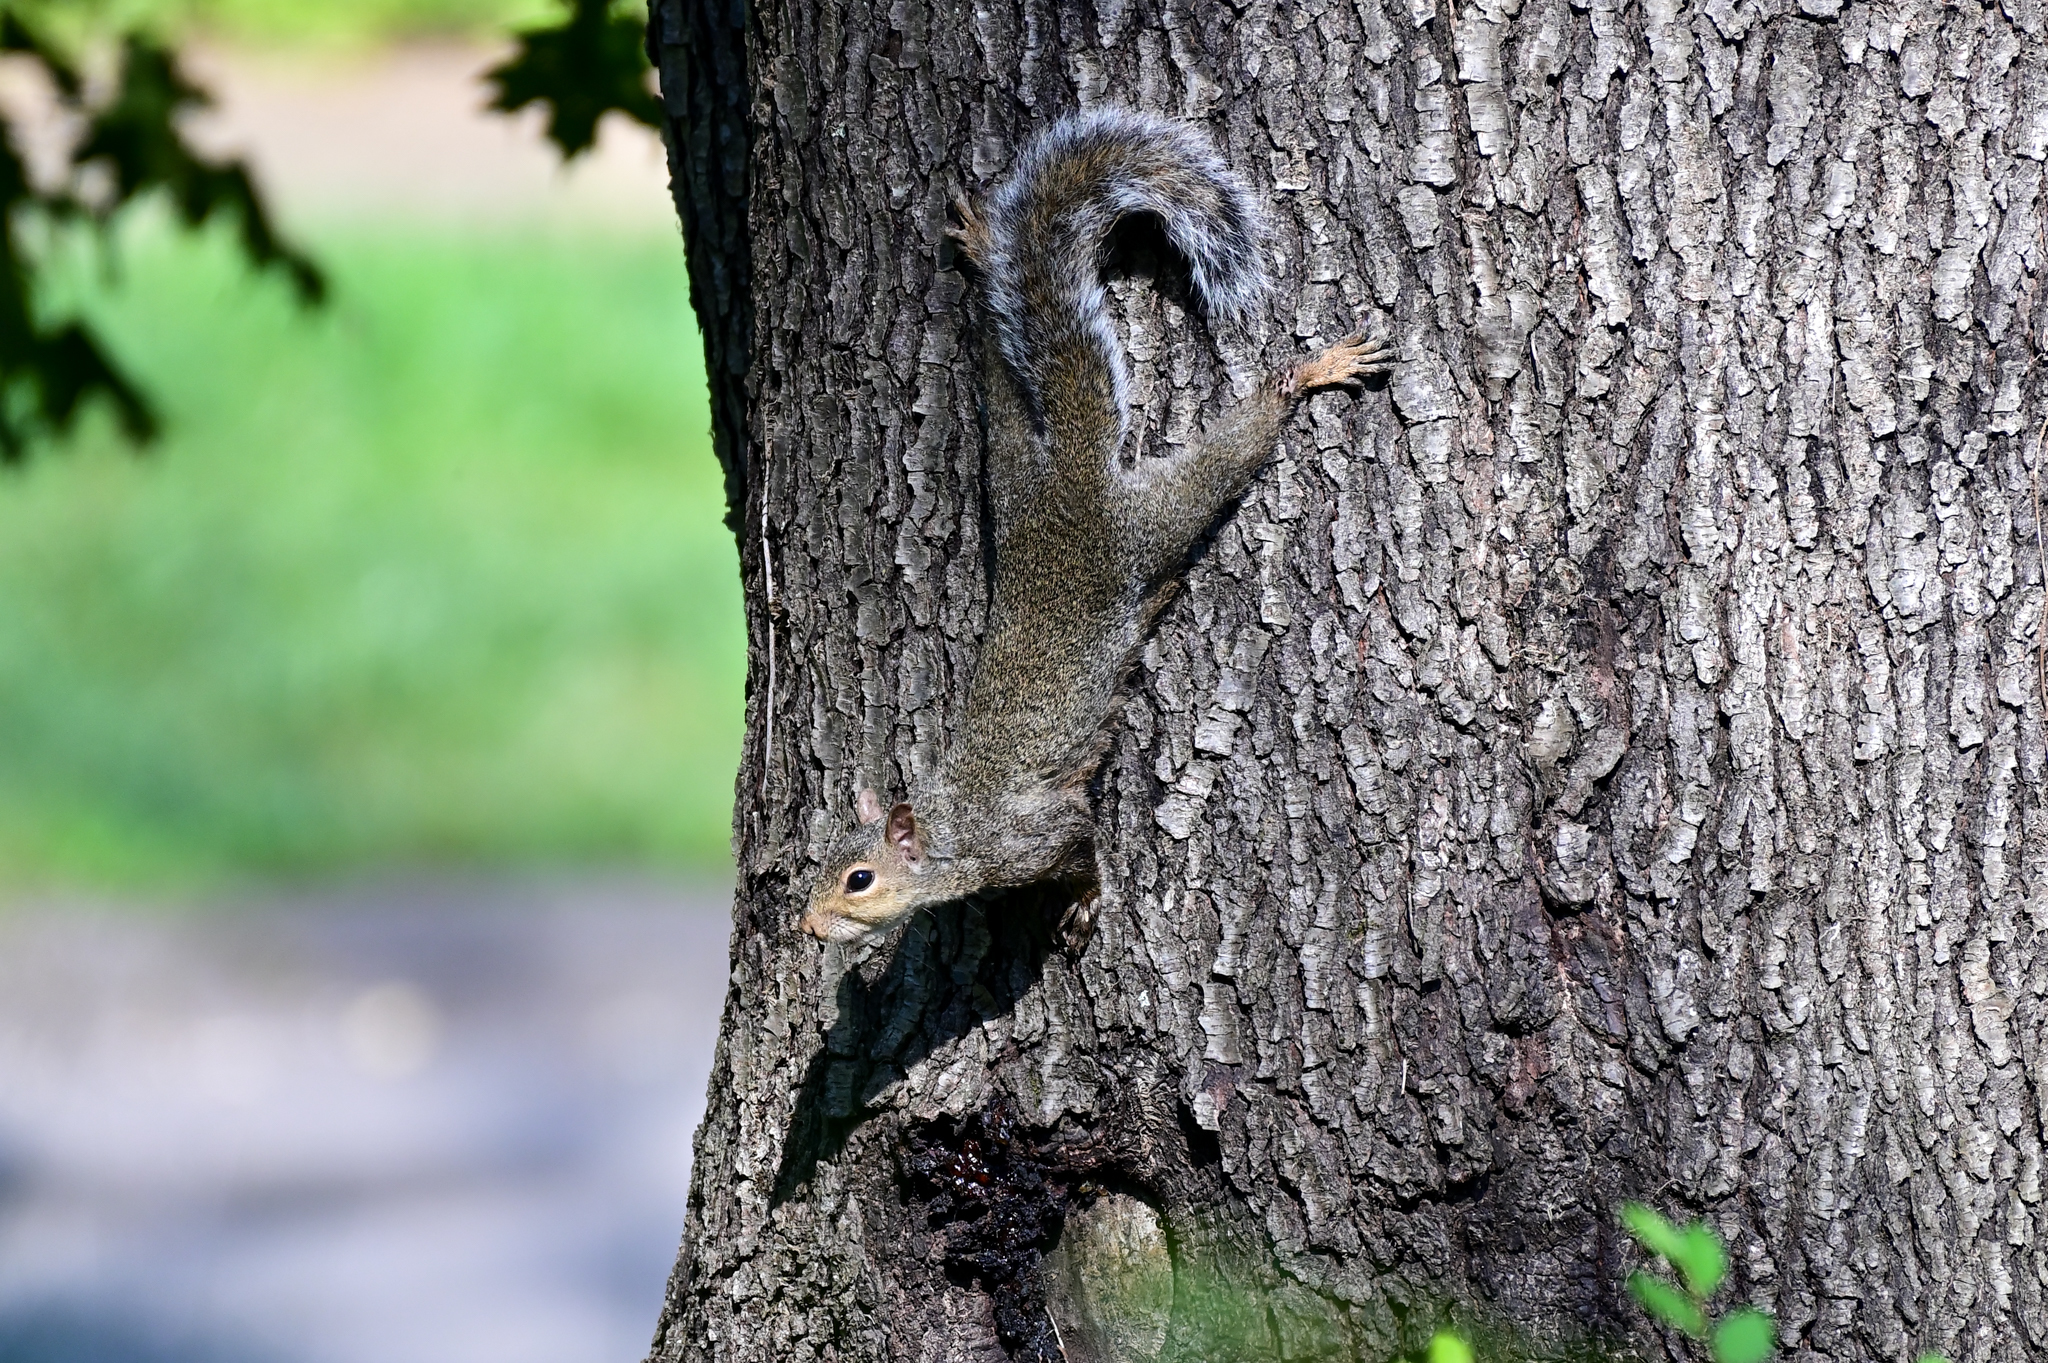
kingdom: Animalia
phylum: Chordata
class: Mammalia
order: Rodentia
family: Sciuridae
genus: Sciurus
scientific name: Sciurus carolinensis
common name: Eastern gray squirrel
